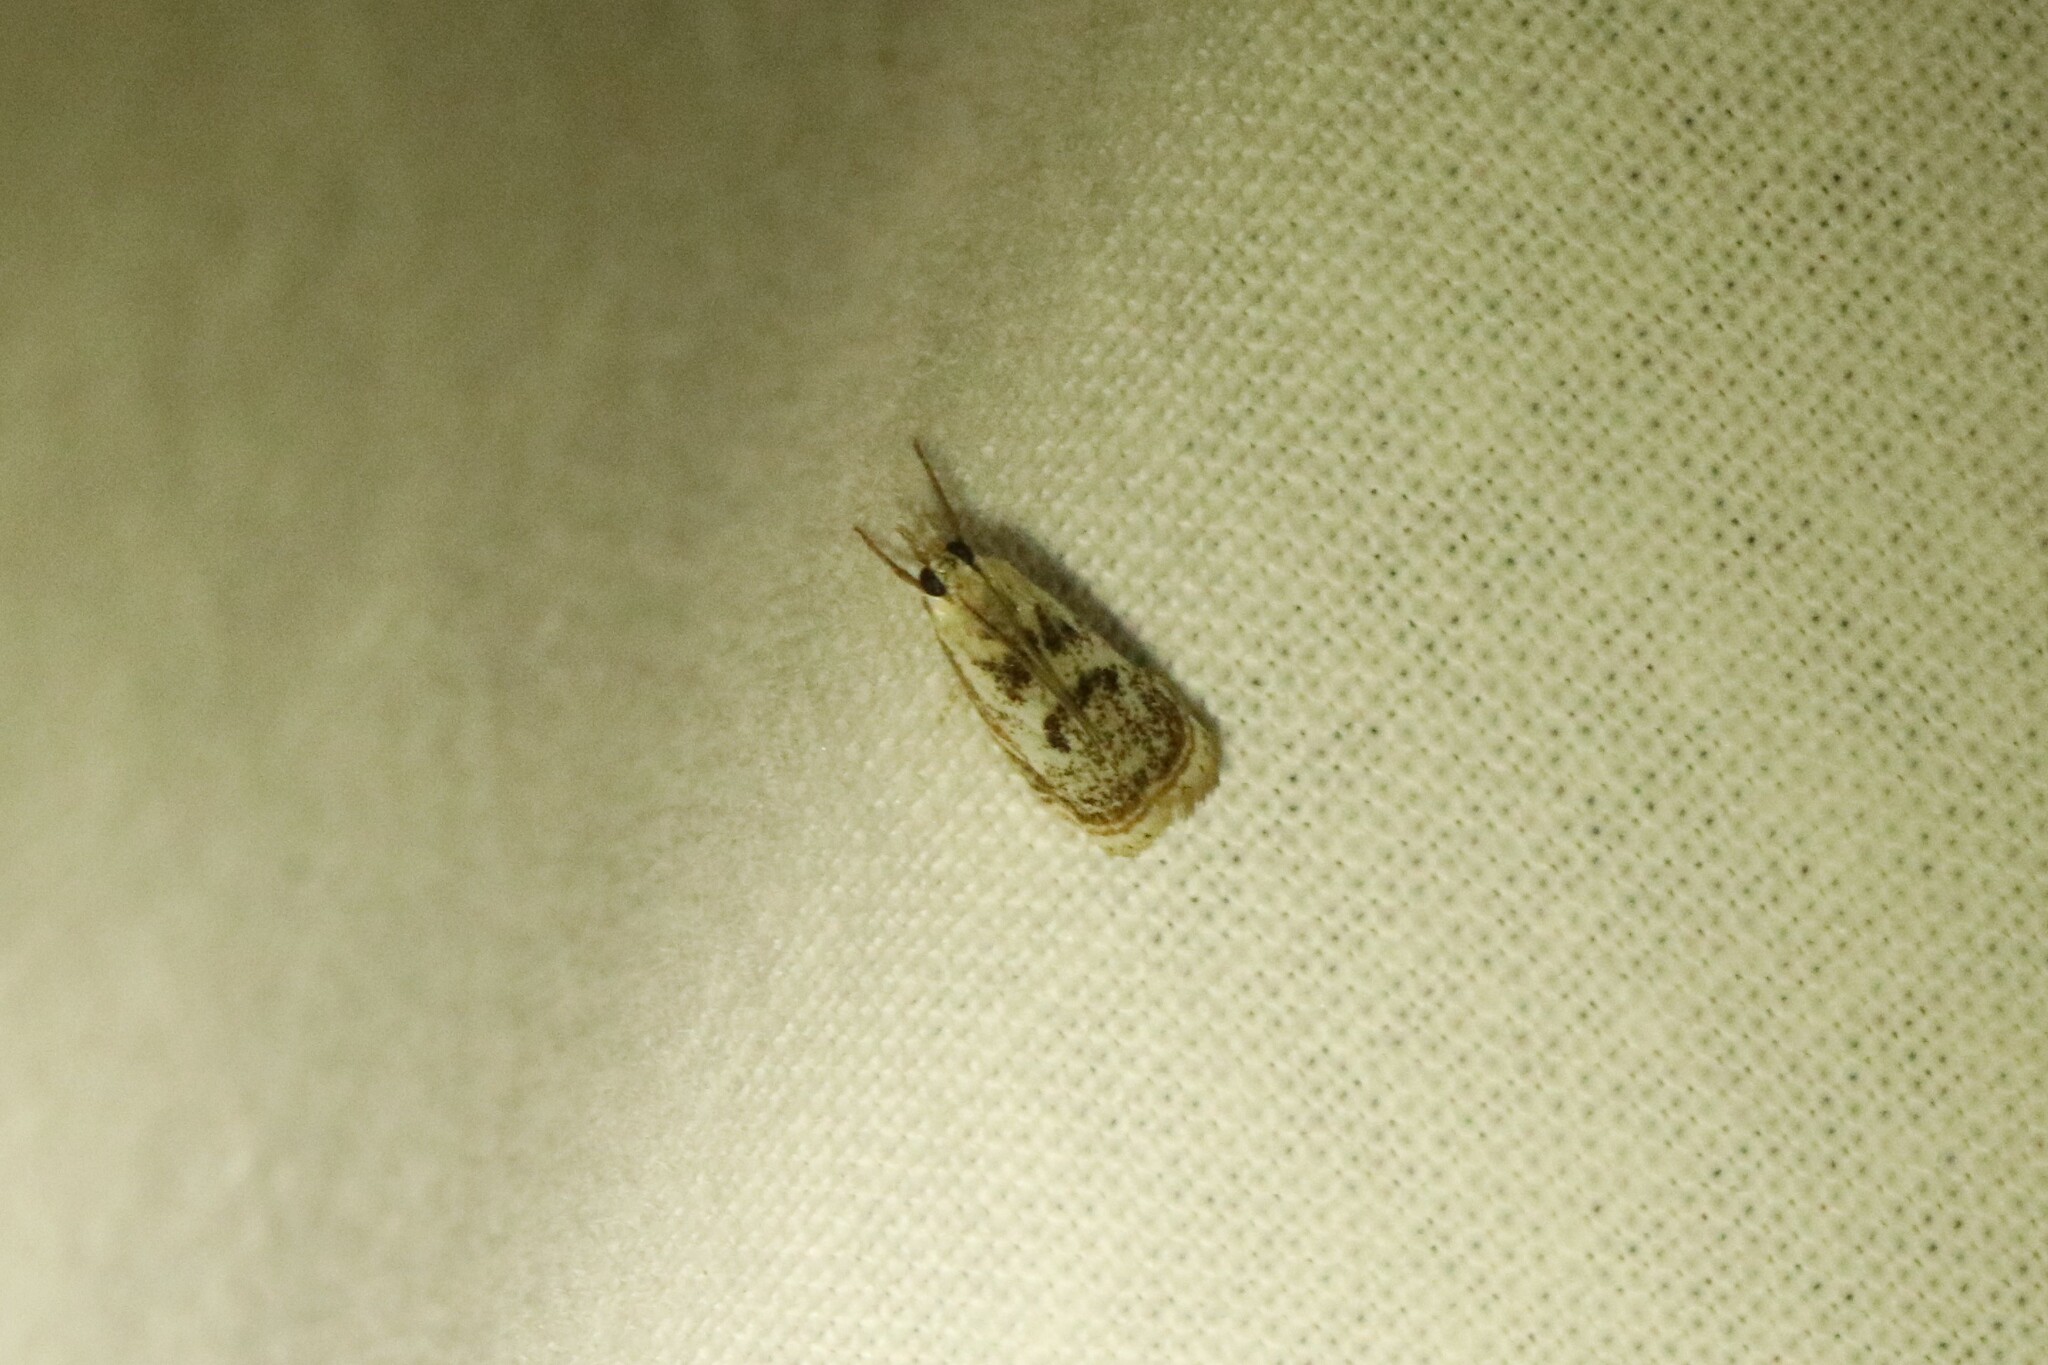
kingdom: Animalia
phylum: Arthropoda
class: Insecta
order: Lepidoptera
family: Crambidae
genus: Microcrambus
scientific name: Microcrambus elegans
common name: Elegant grass-veneer
